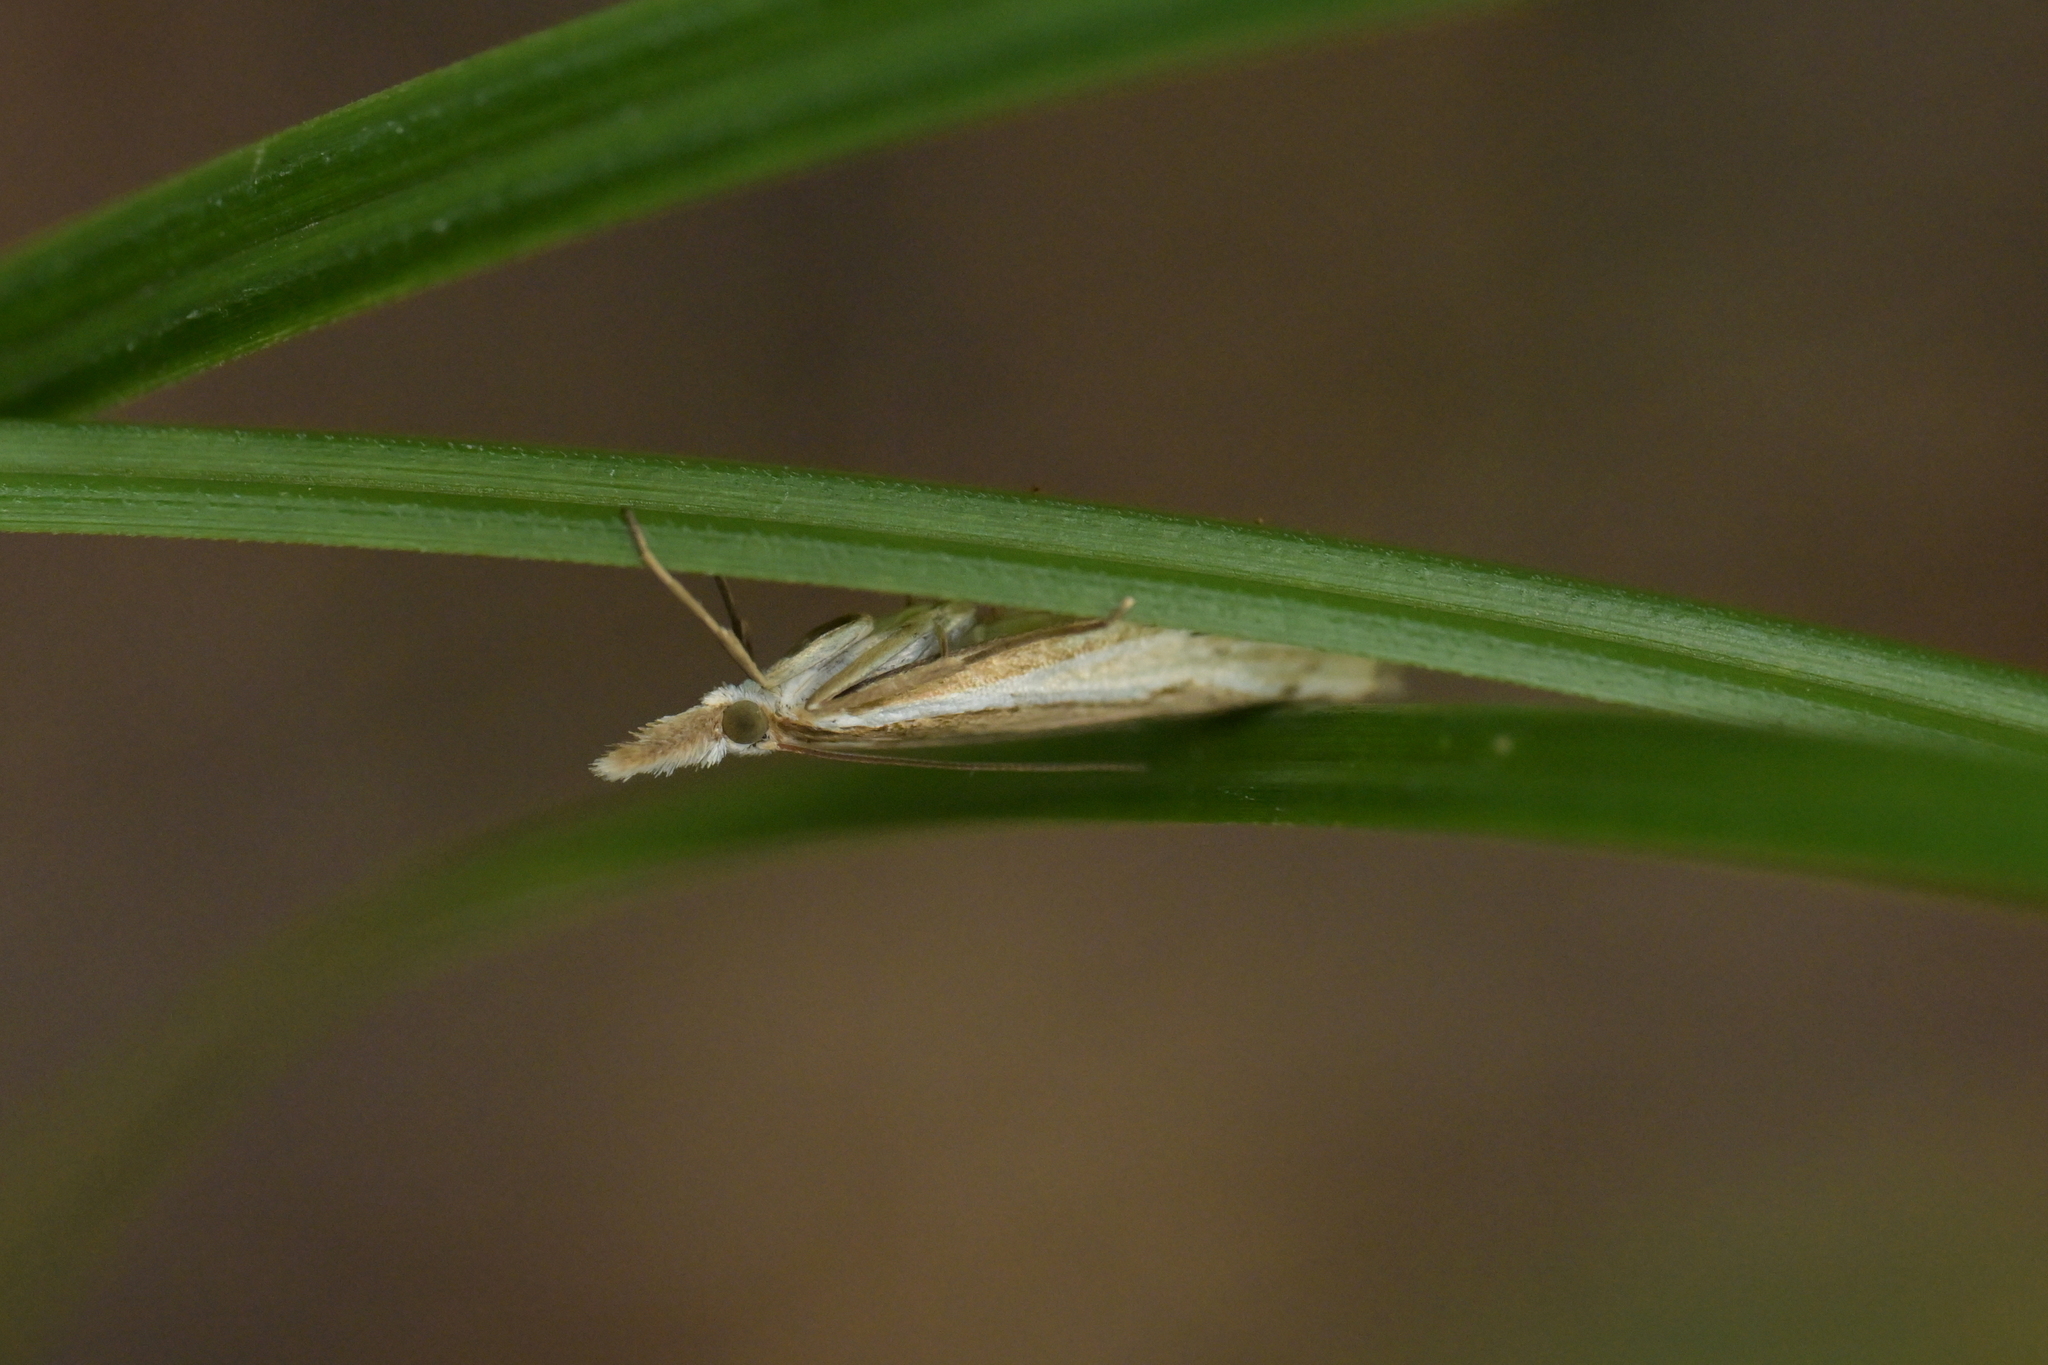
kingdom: Animalia
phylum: Arthropoda
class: Insecta
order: Lepidoptera
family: Crambidae
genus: Orocrambus
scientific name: Orocrambus ramosellus
